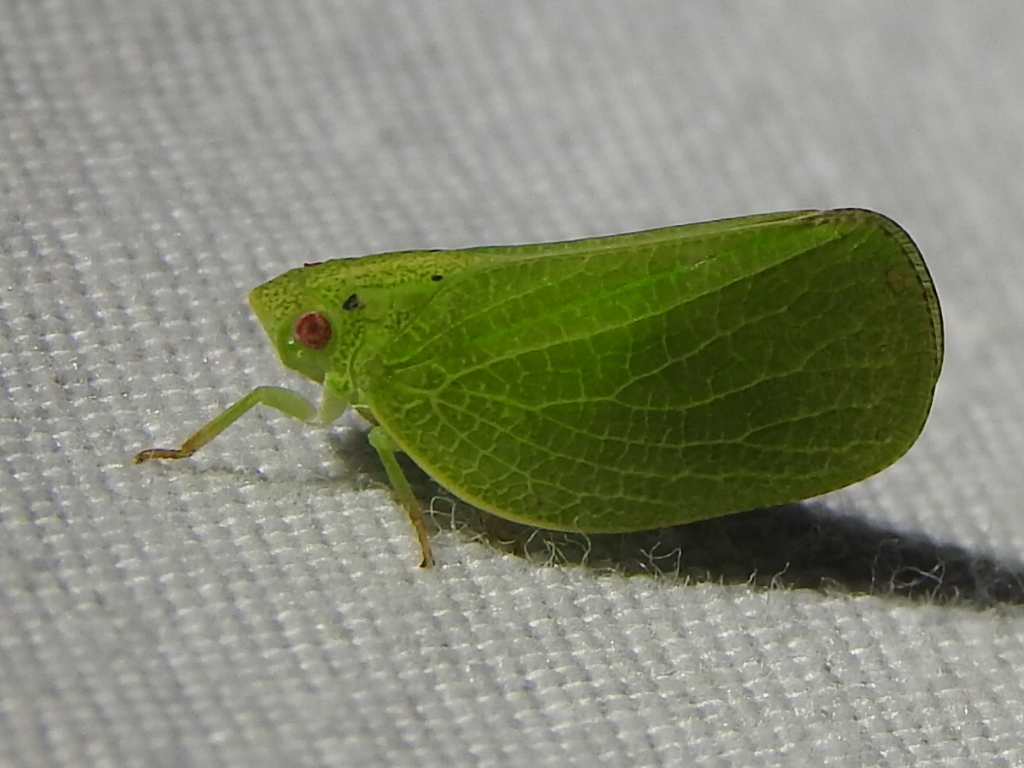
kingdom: Animalia
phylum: Arthropoda
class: Insecta
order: Hemiptera
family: Acanaloniidae
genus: Acanalonia
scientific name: Acanalonia conica
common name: Green cone-headed planthopper
